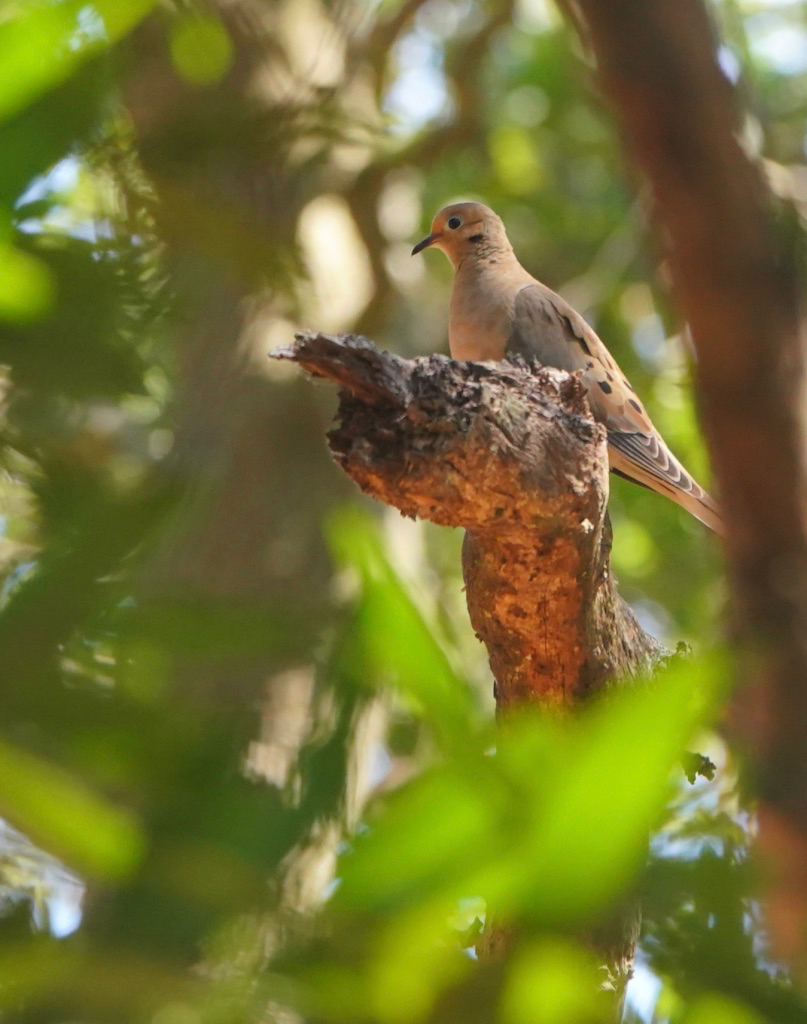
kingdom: Animalia
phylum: Chordata
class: Aves
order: Columbiformes
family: Columbidae
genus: Zenaida
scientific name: Zenaida macroura
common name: Mourning dove
